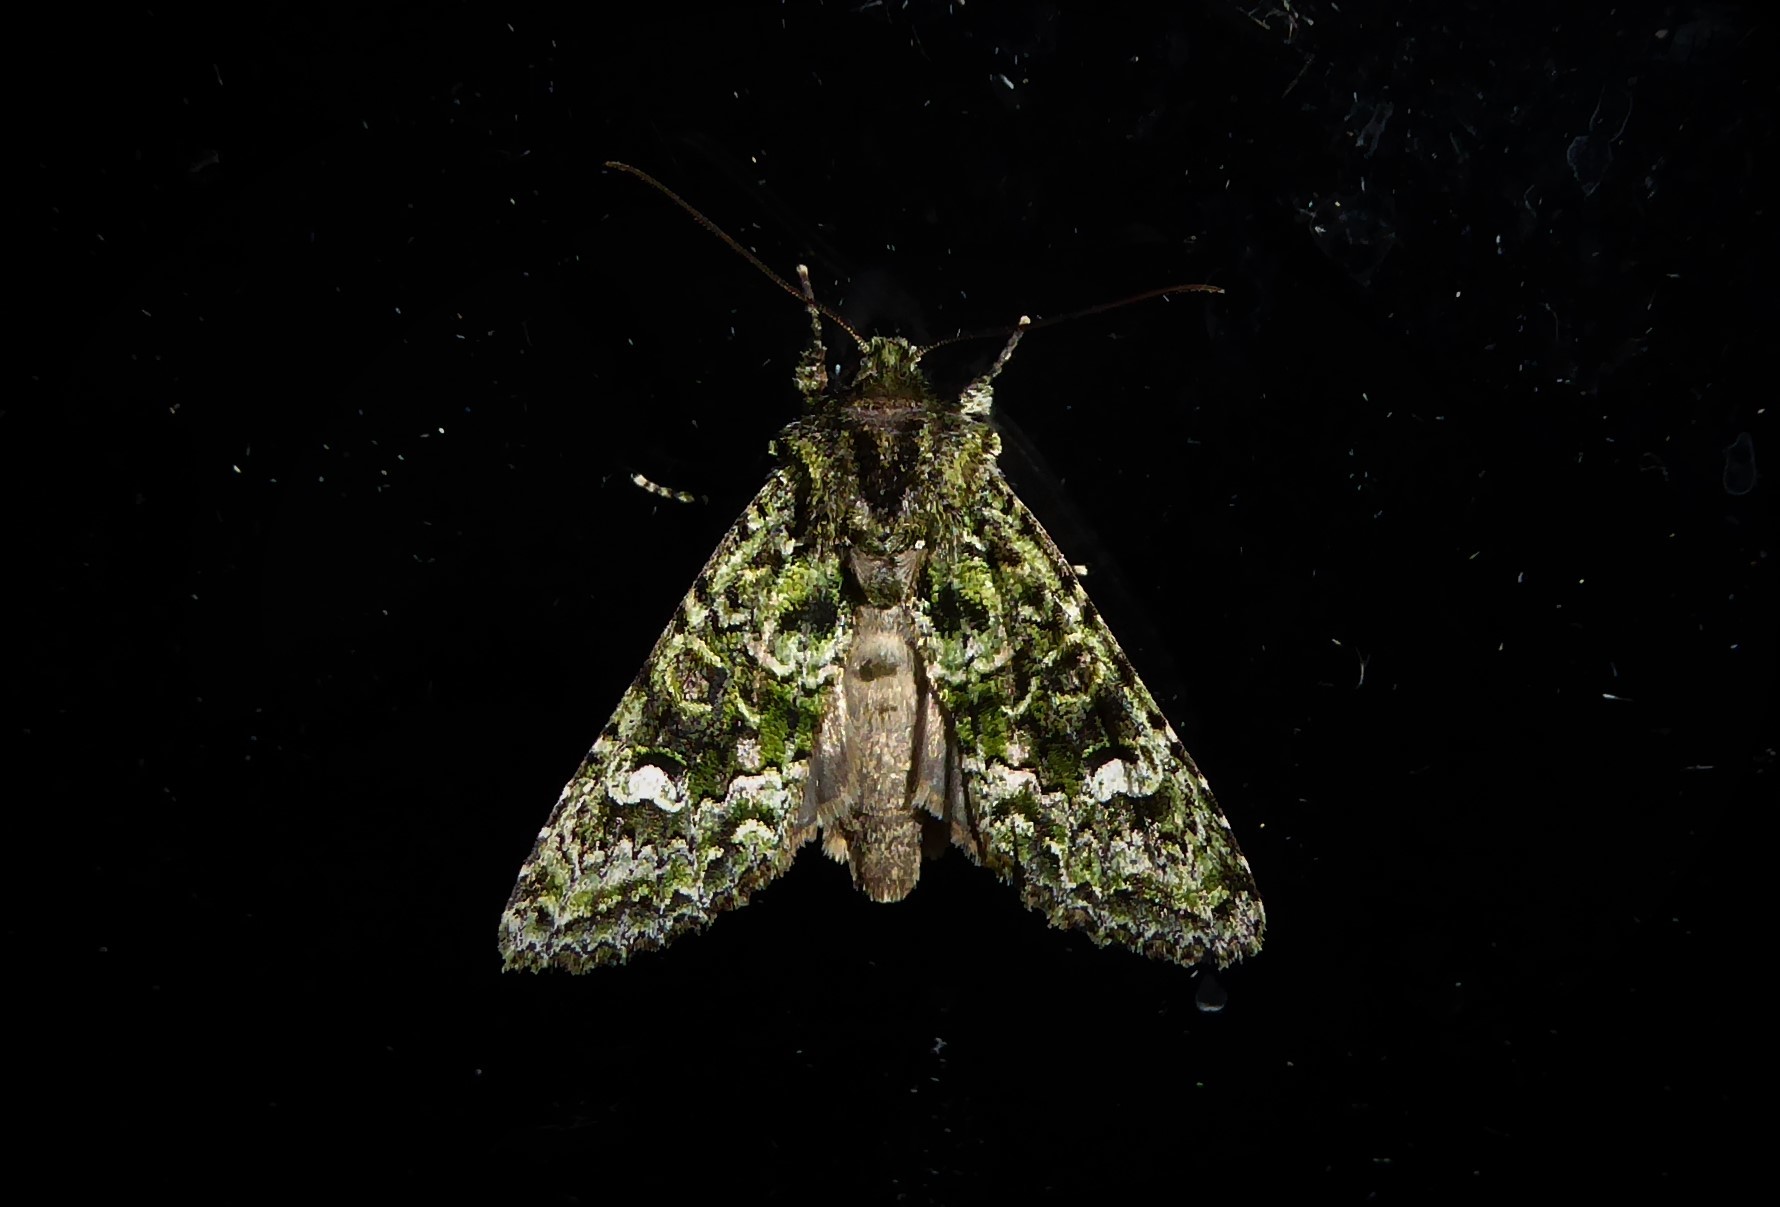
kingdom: Animalia
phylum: Arthropoda
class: Insecta
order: Lepidoptera
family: Noctuidae
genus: Ichneutica
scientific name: Ichneutica
